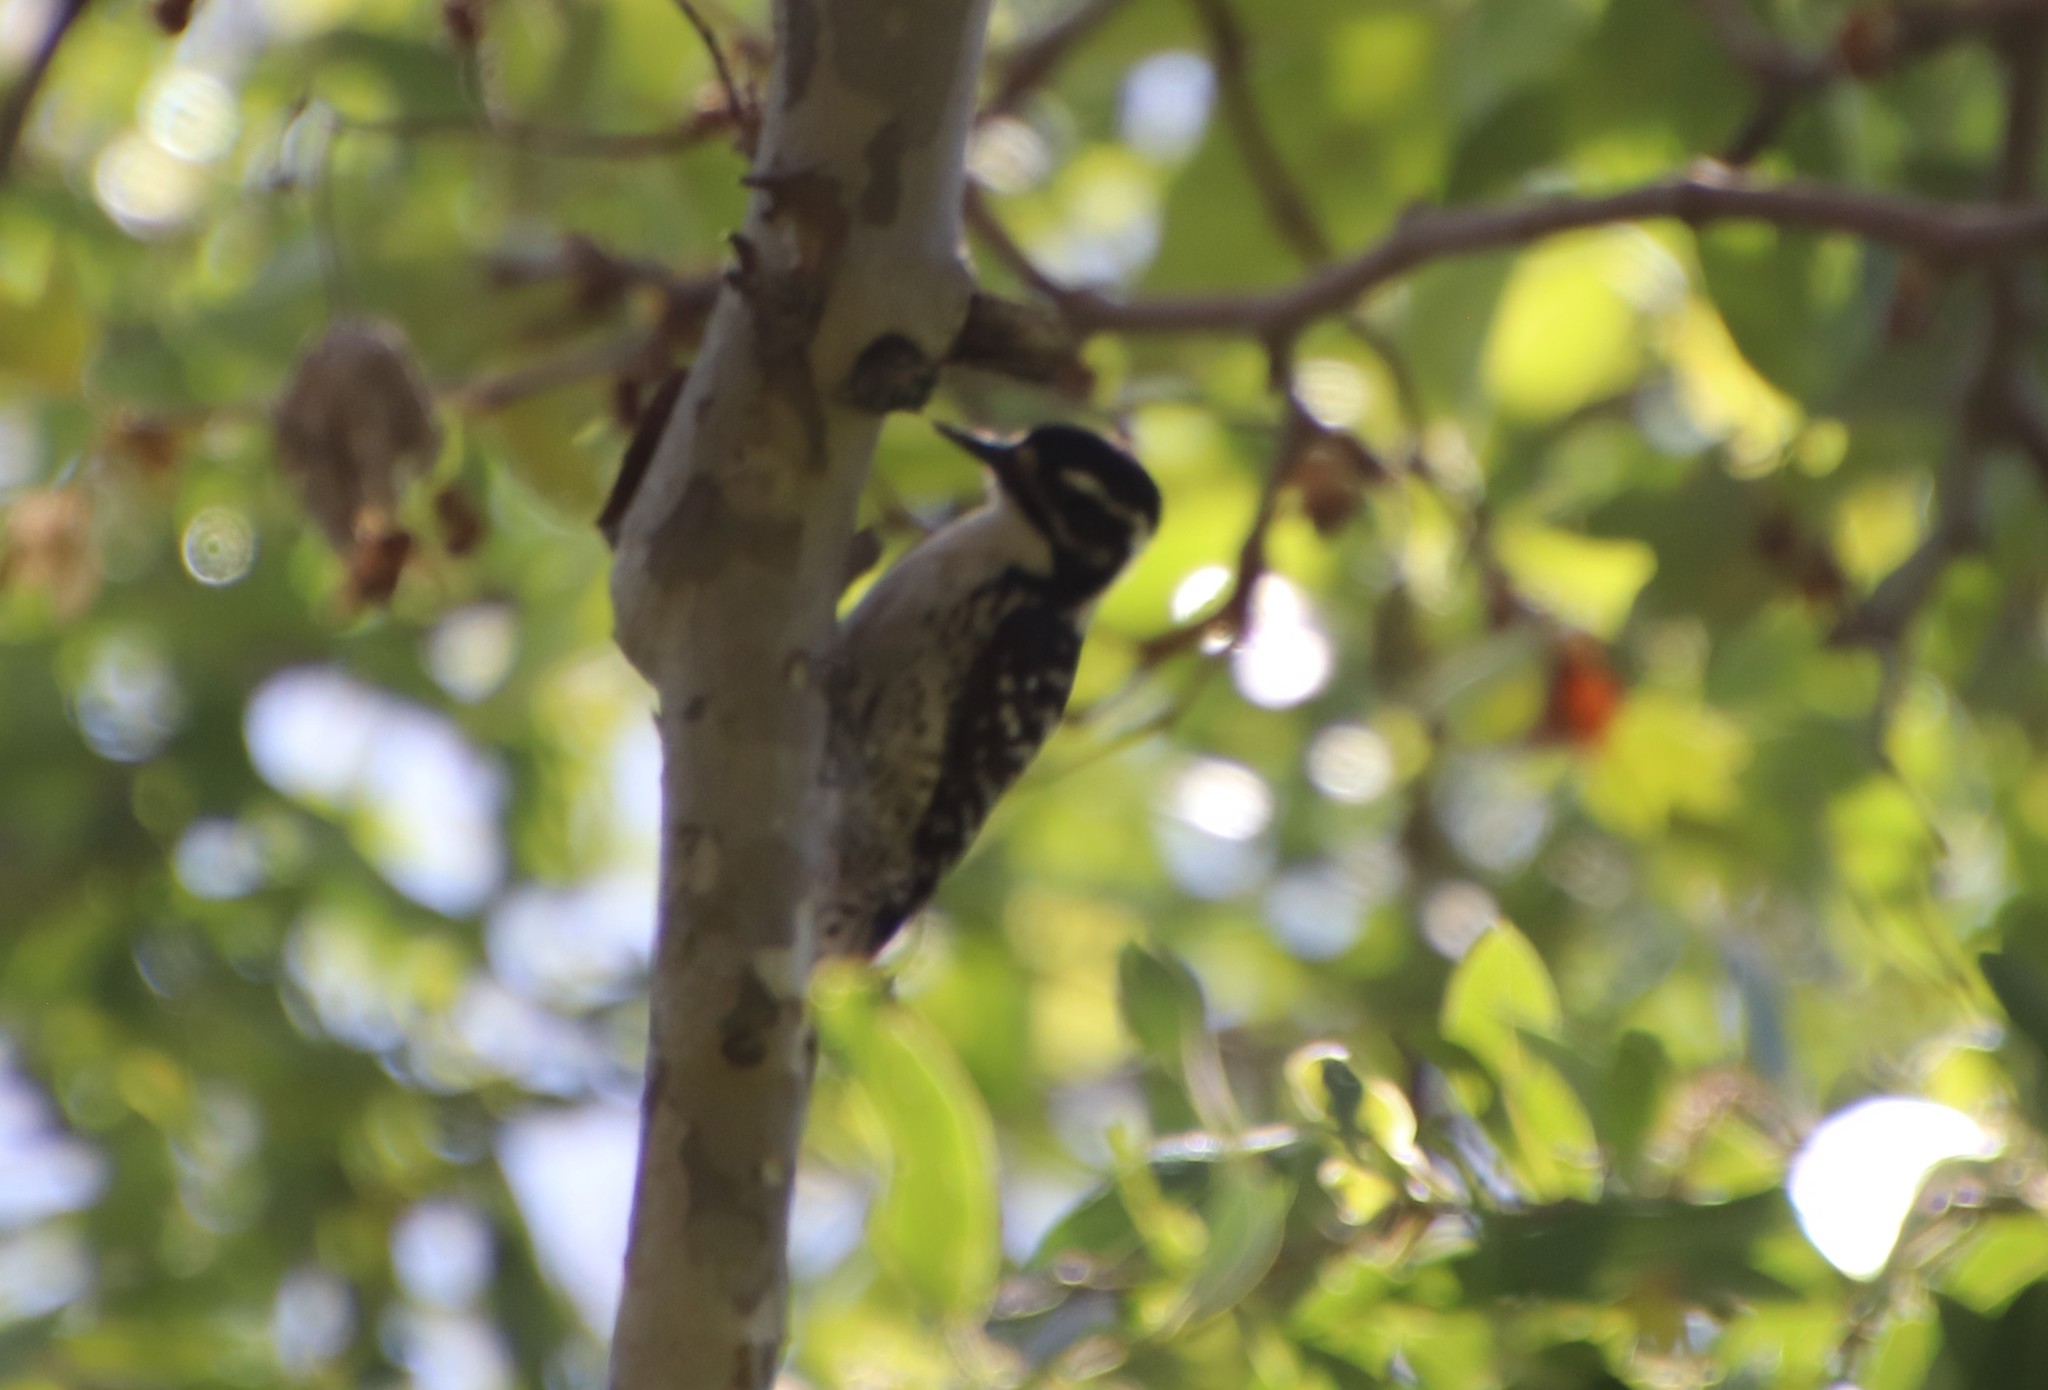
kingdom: Animalia
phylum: Chordata
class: Aves
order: Piciformes
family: Picidae
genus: Dryobates
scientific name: Dryobates nuttallii
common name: Nuttall's woodpecker
